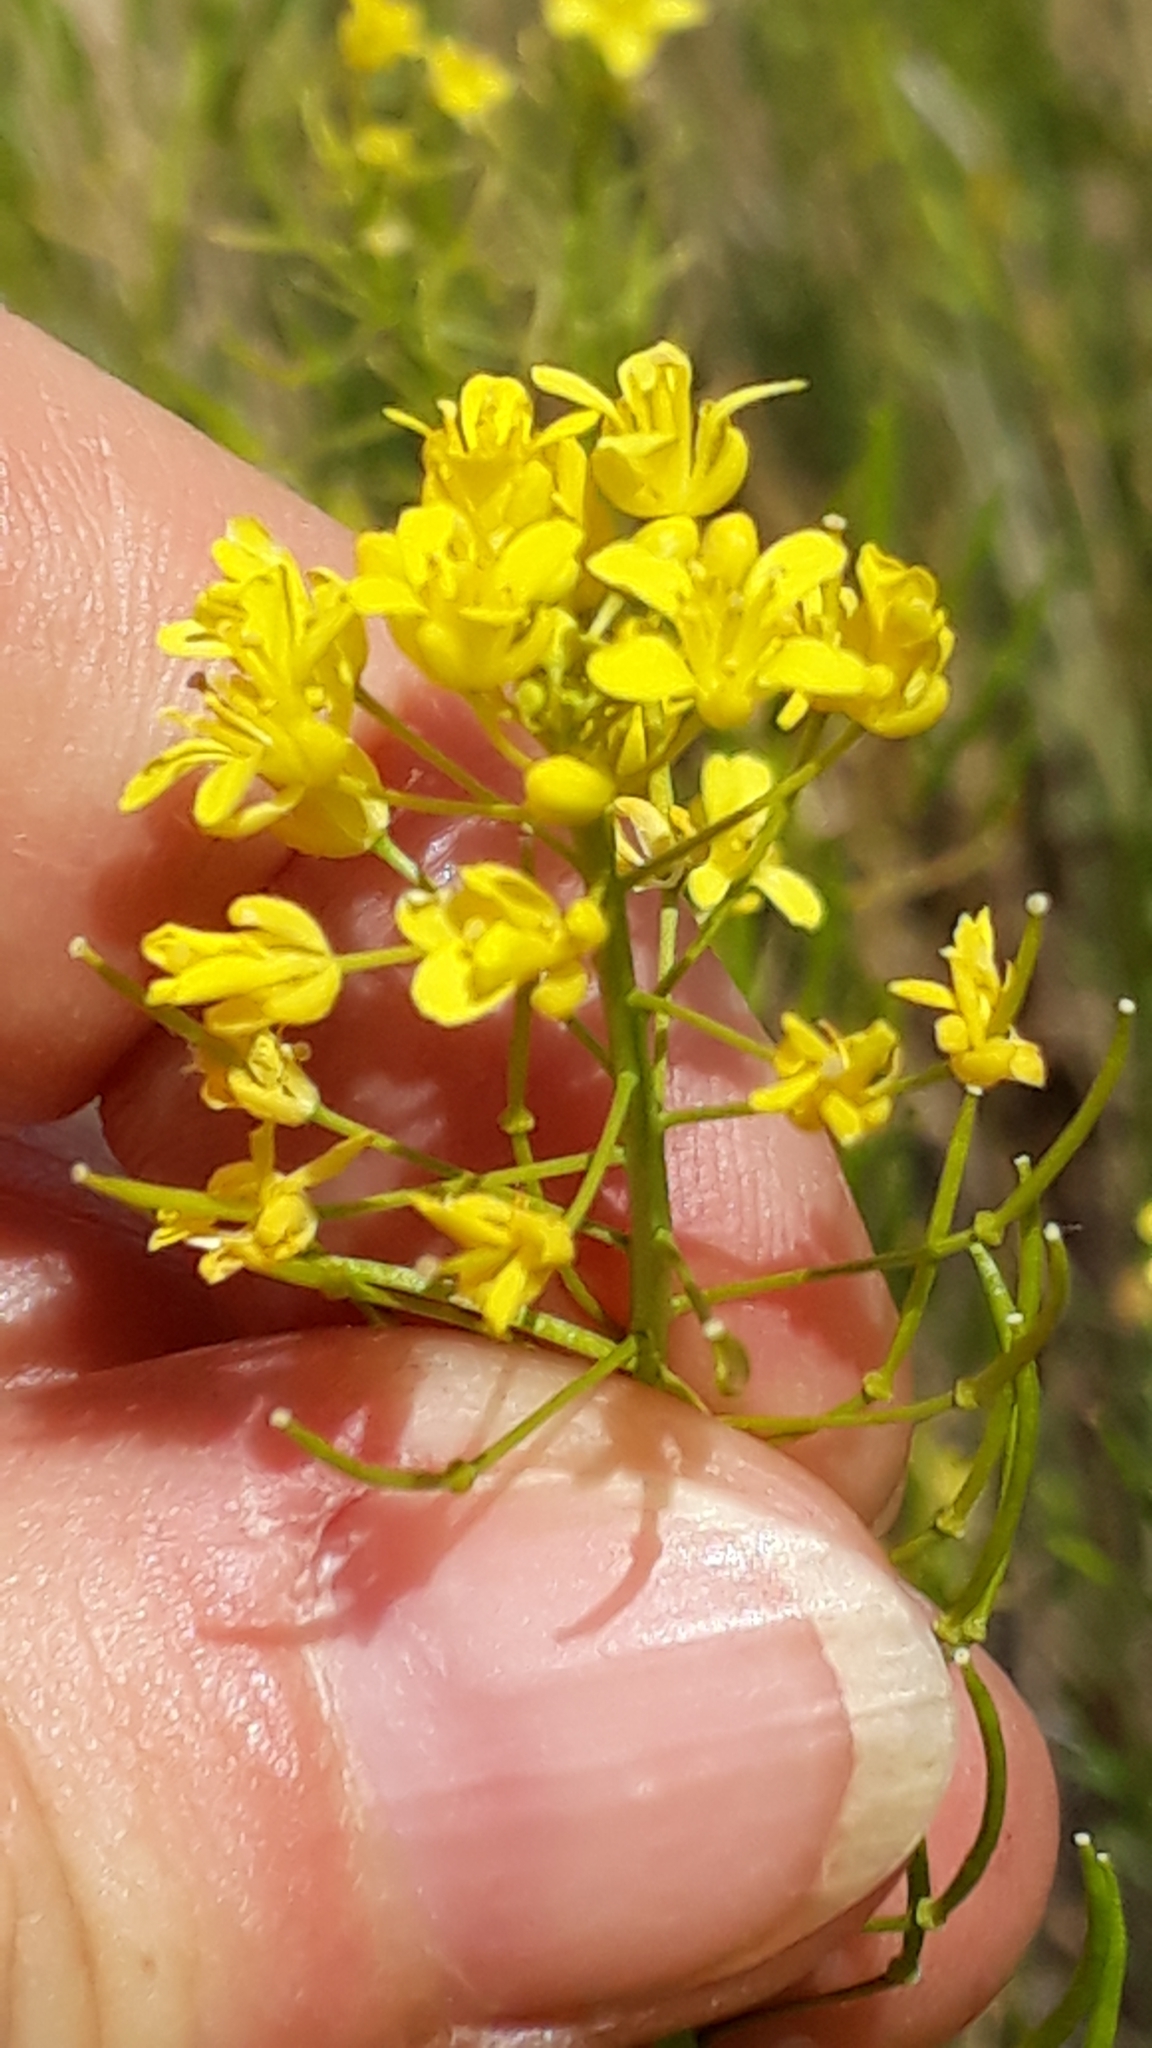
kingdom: Plantae
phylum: Tracheophyta
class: Magnoliopsida
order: Brassicales
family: Brassicaceae
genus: Descurainia
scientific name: Descurainia bourgaeana
